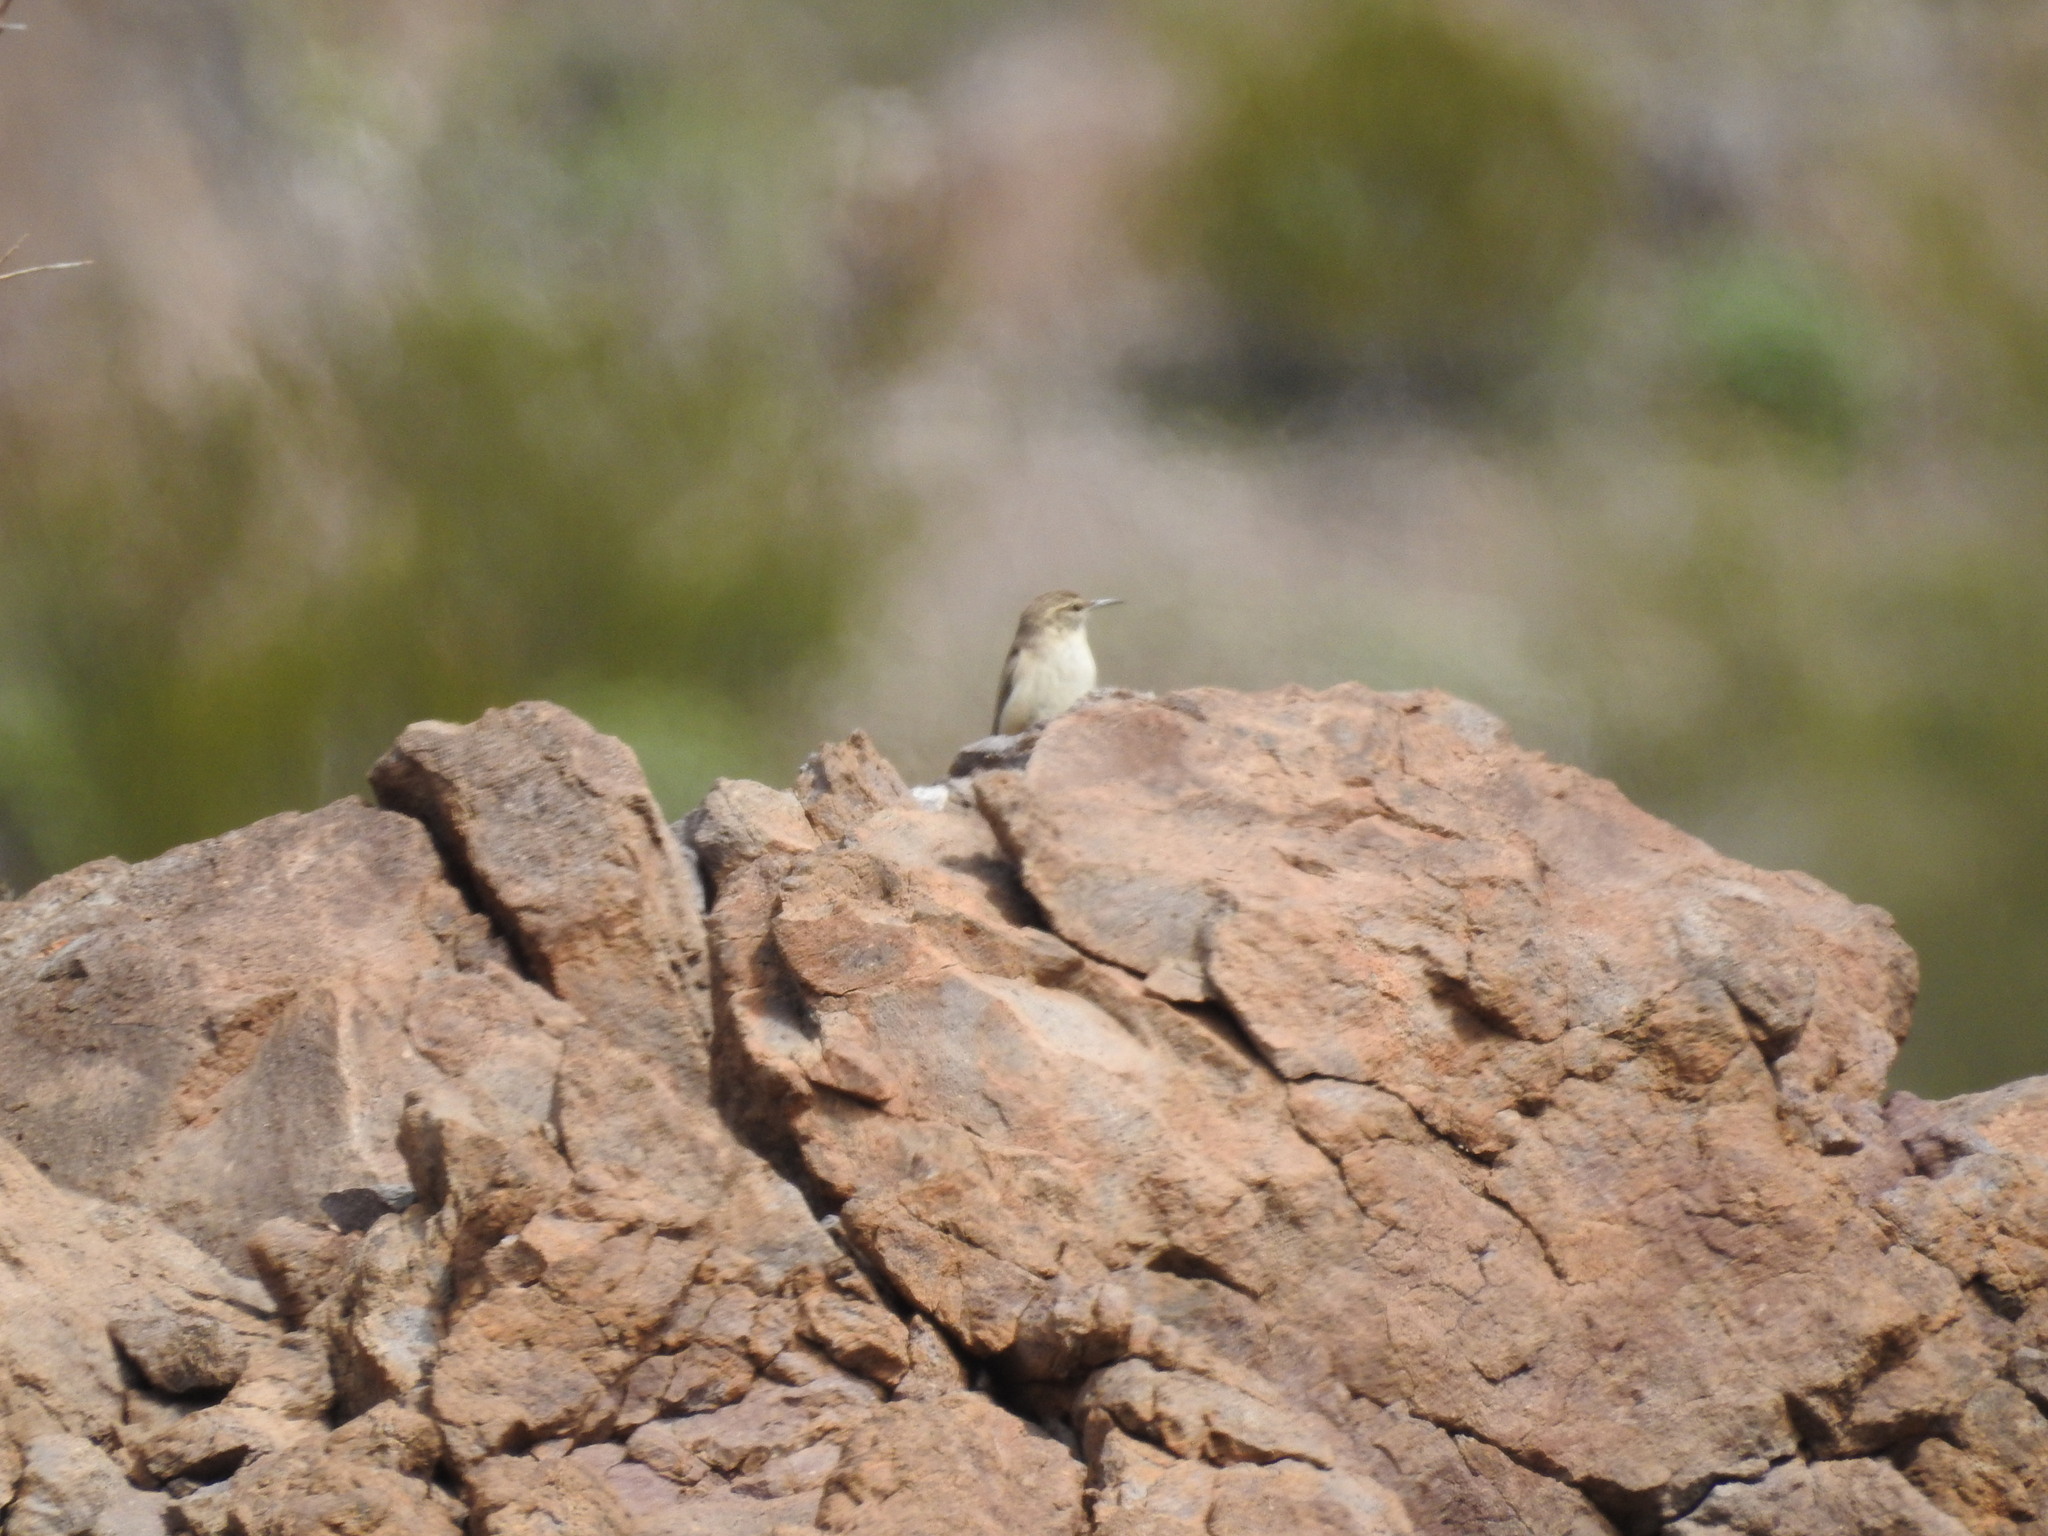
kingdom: Animalia
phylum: Chordata
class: Aves
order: Passeriformes
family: Troglodytidae
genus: Salpinctes
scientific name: Salpinctes obsoletus
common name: Rock wren
